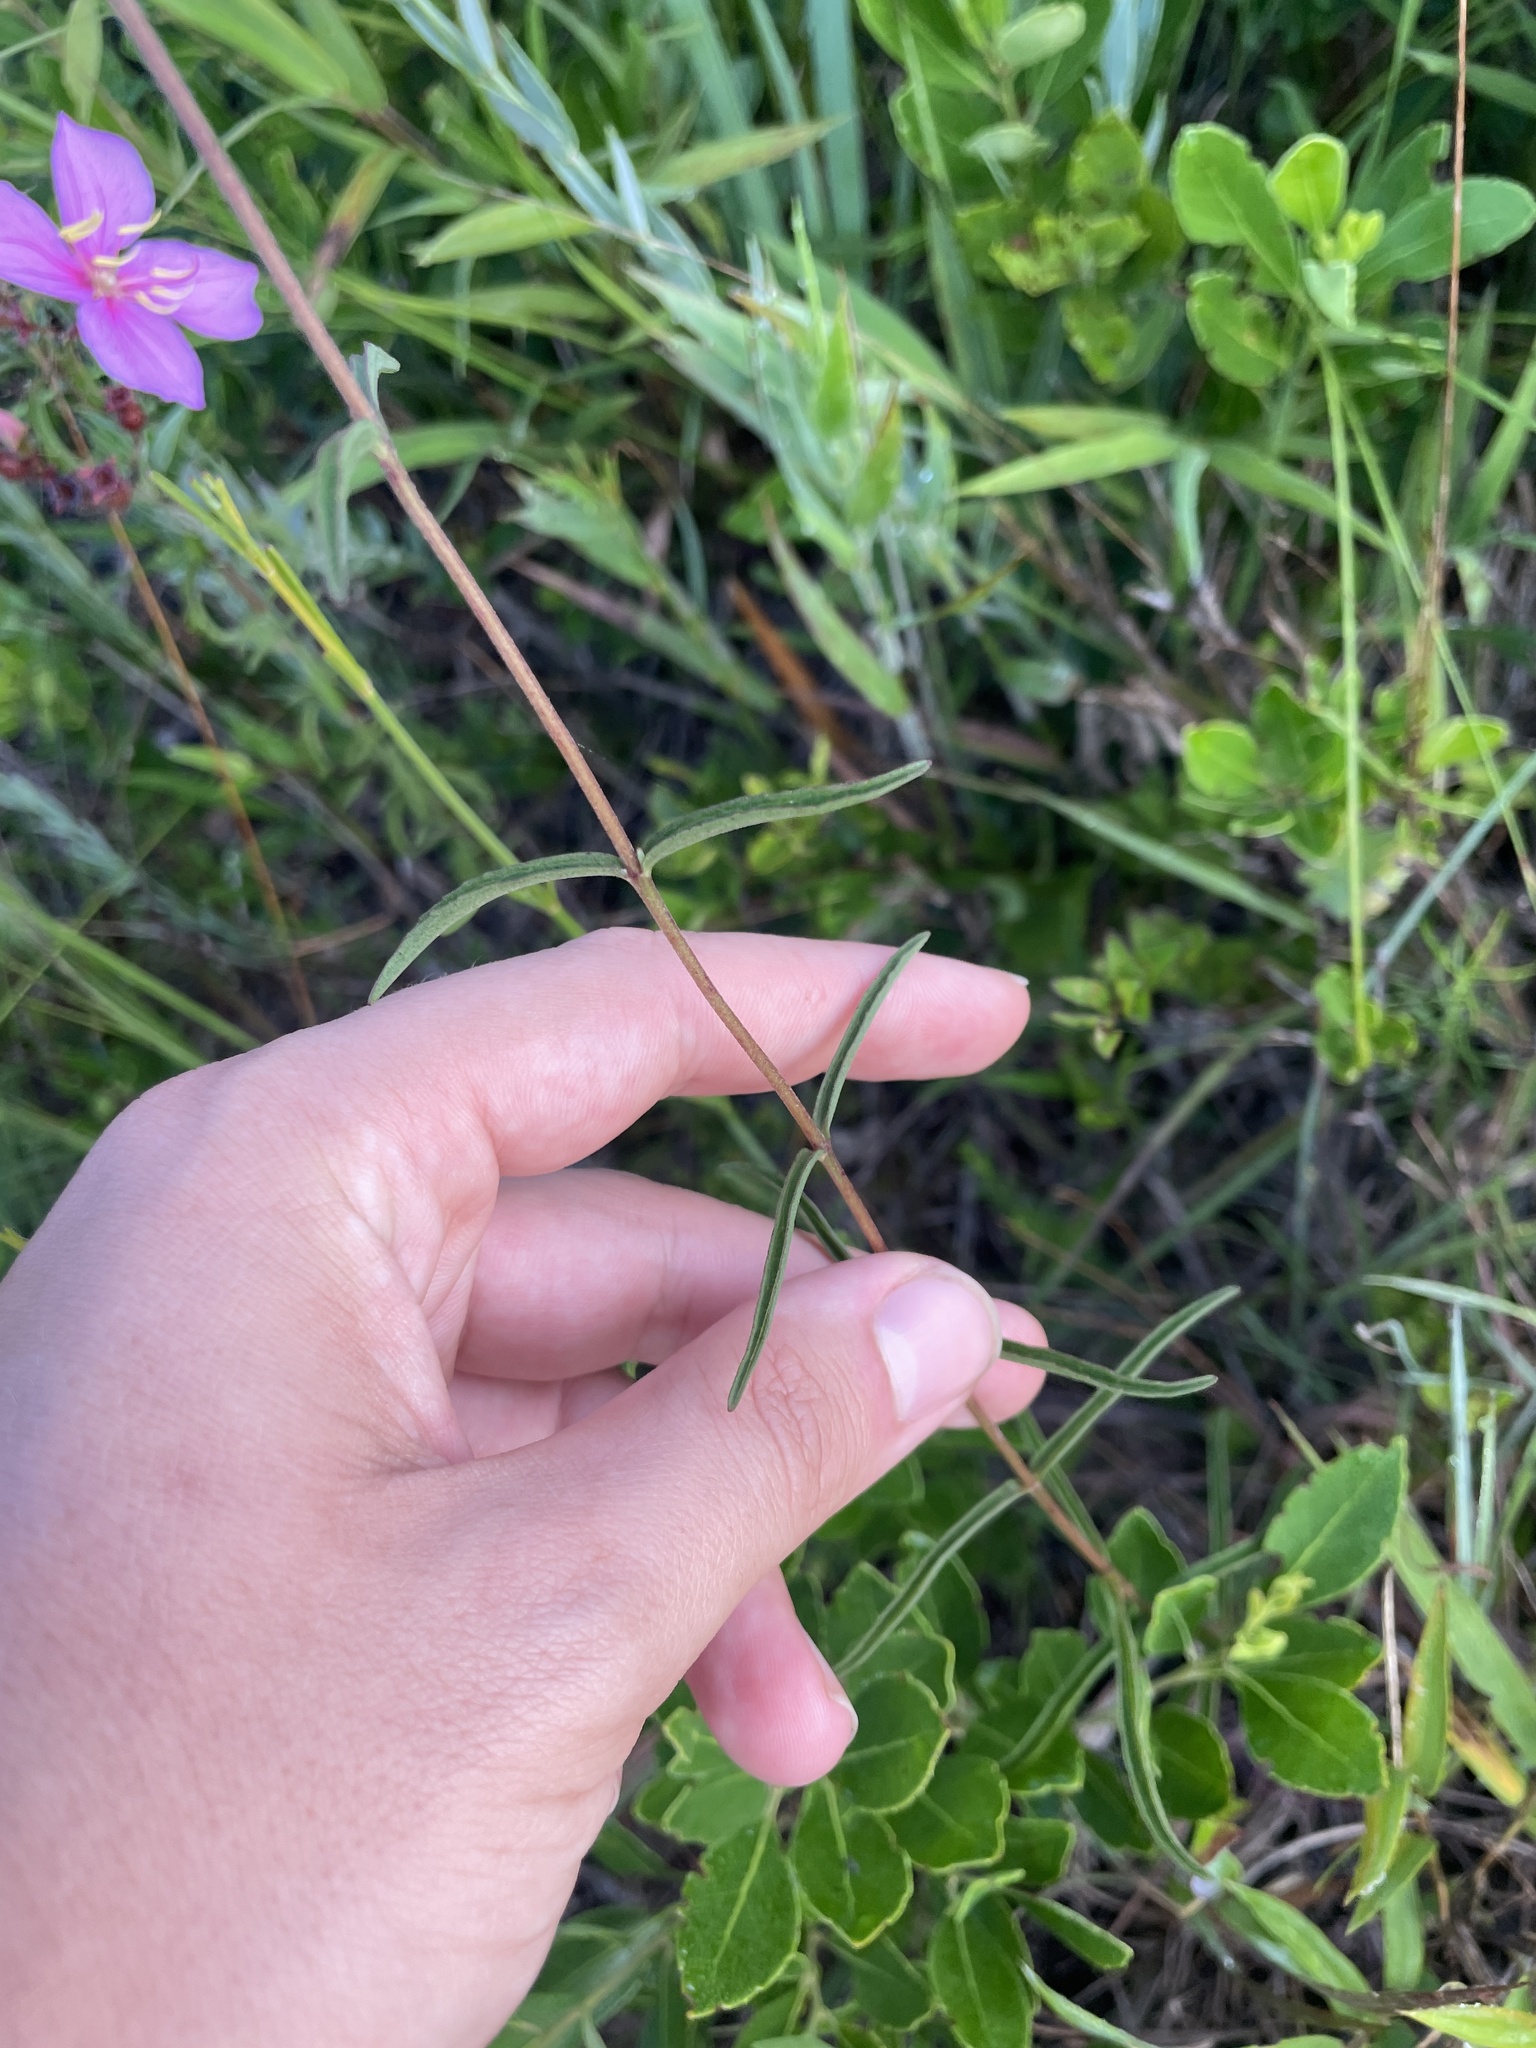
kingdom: Plantae
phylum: Tracheophyta
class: Magnoliopsida
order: Asterales
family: Asteraceae
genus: Eupatorium
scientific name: Eupatorium leucolepis
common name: Justiceweed
